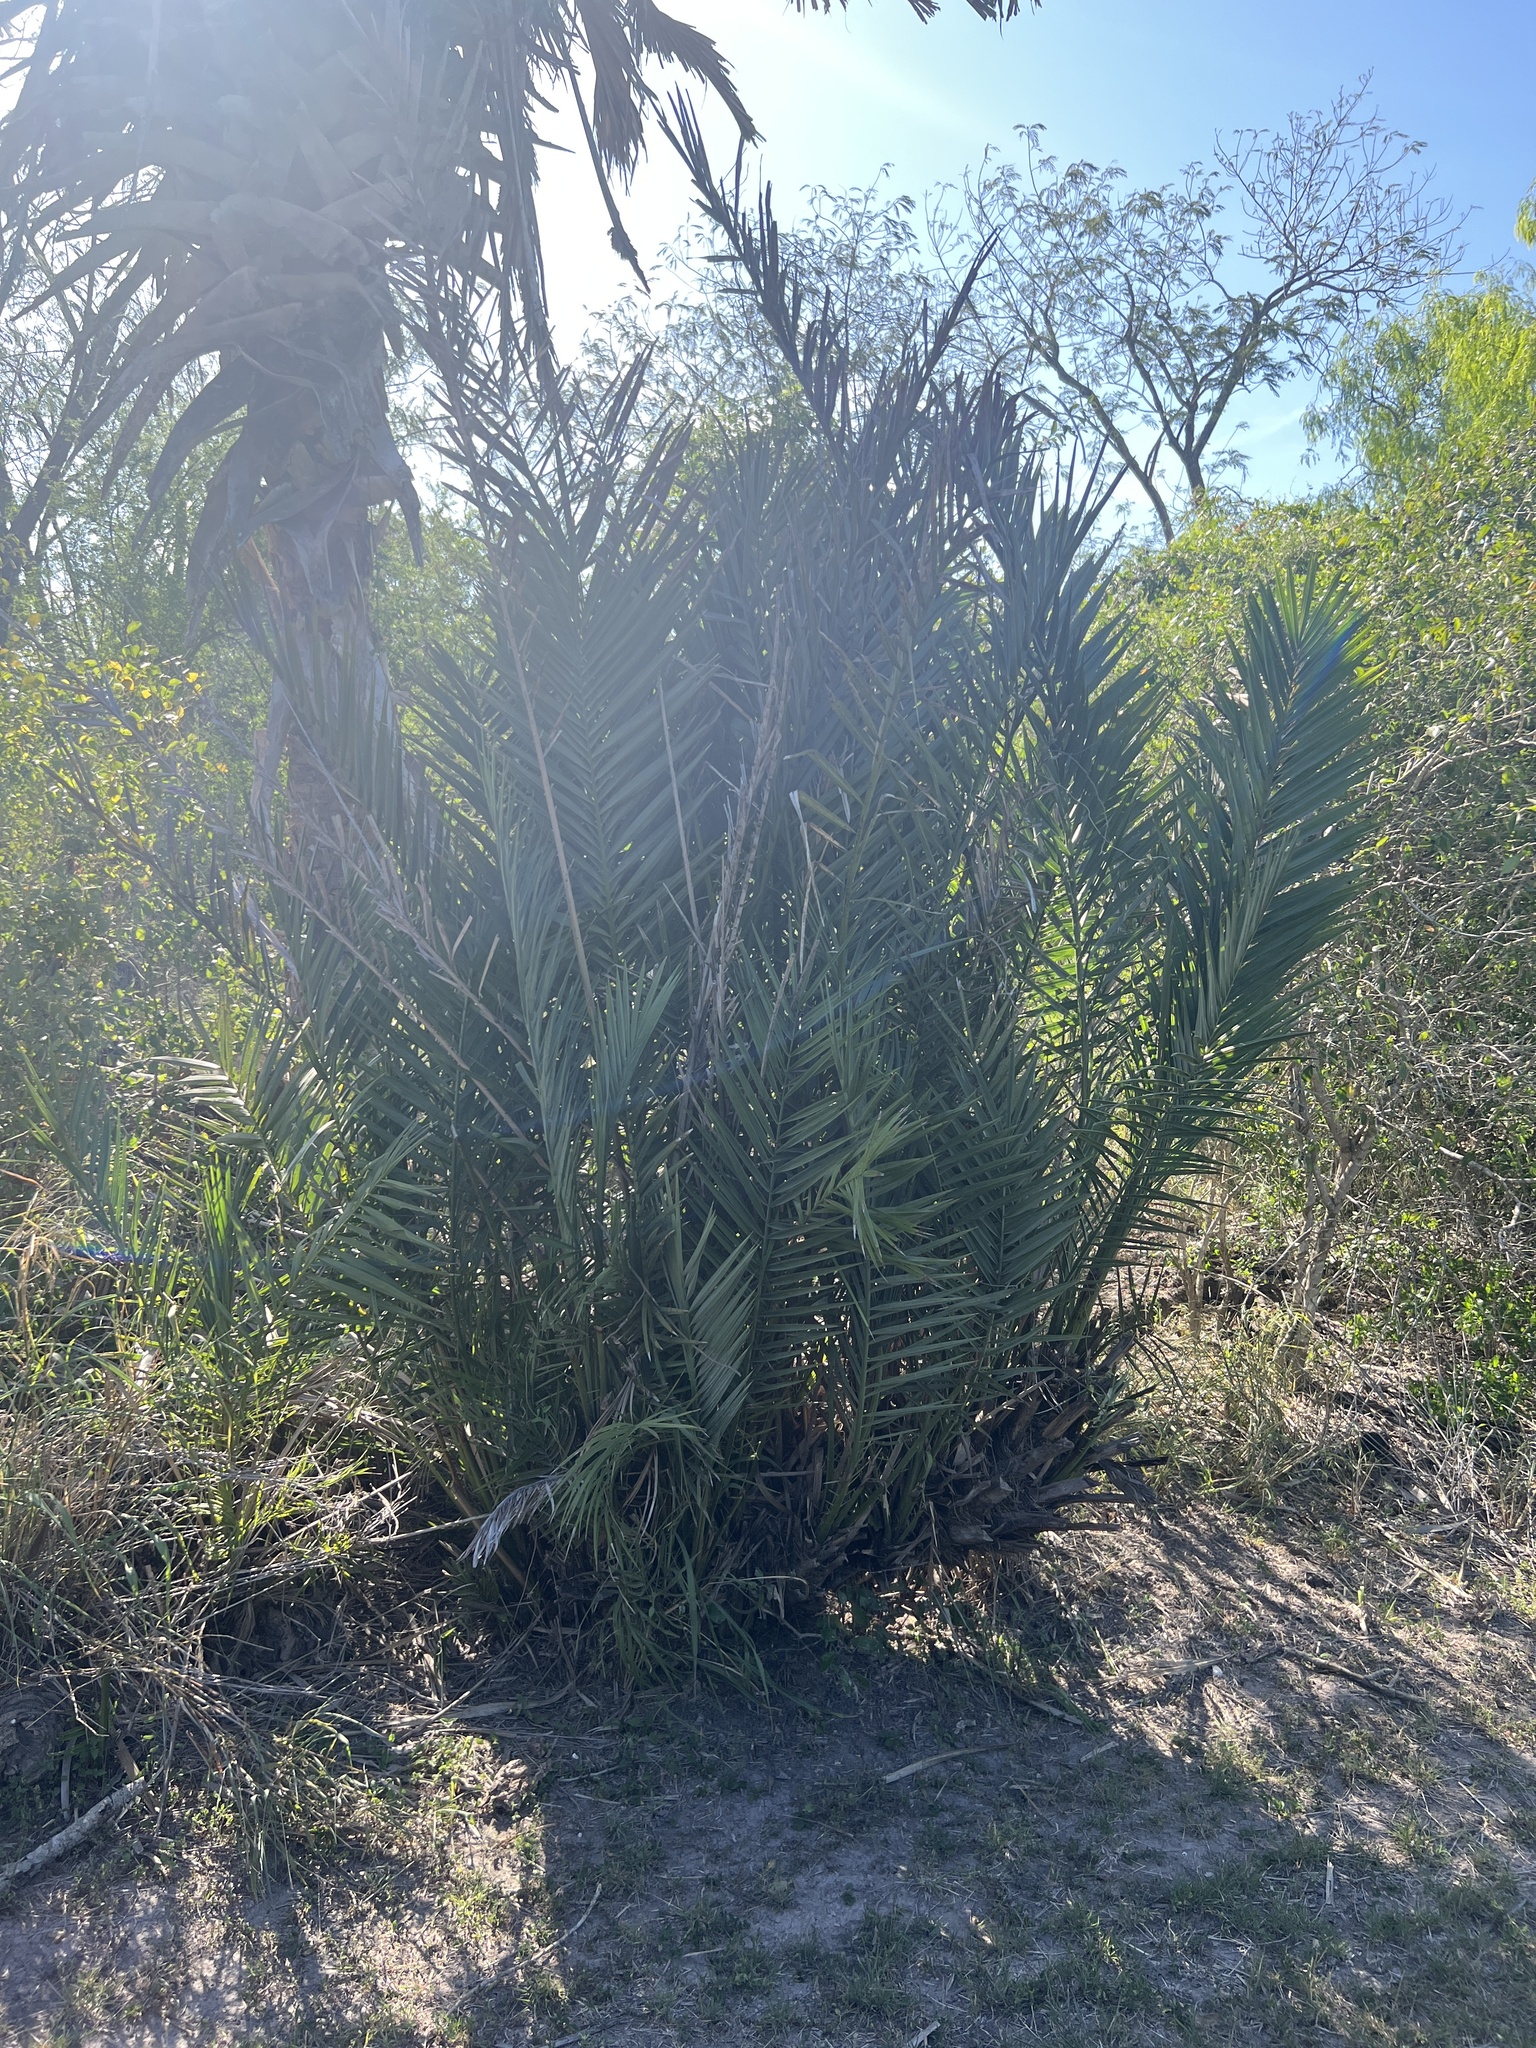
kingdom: Plantae
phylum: Tracheophyta
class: Liliopsida
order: Arecales
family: Arecaceae
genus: Phoenix
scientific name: Phoenix dactylifera
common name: Date palm
